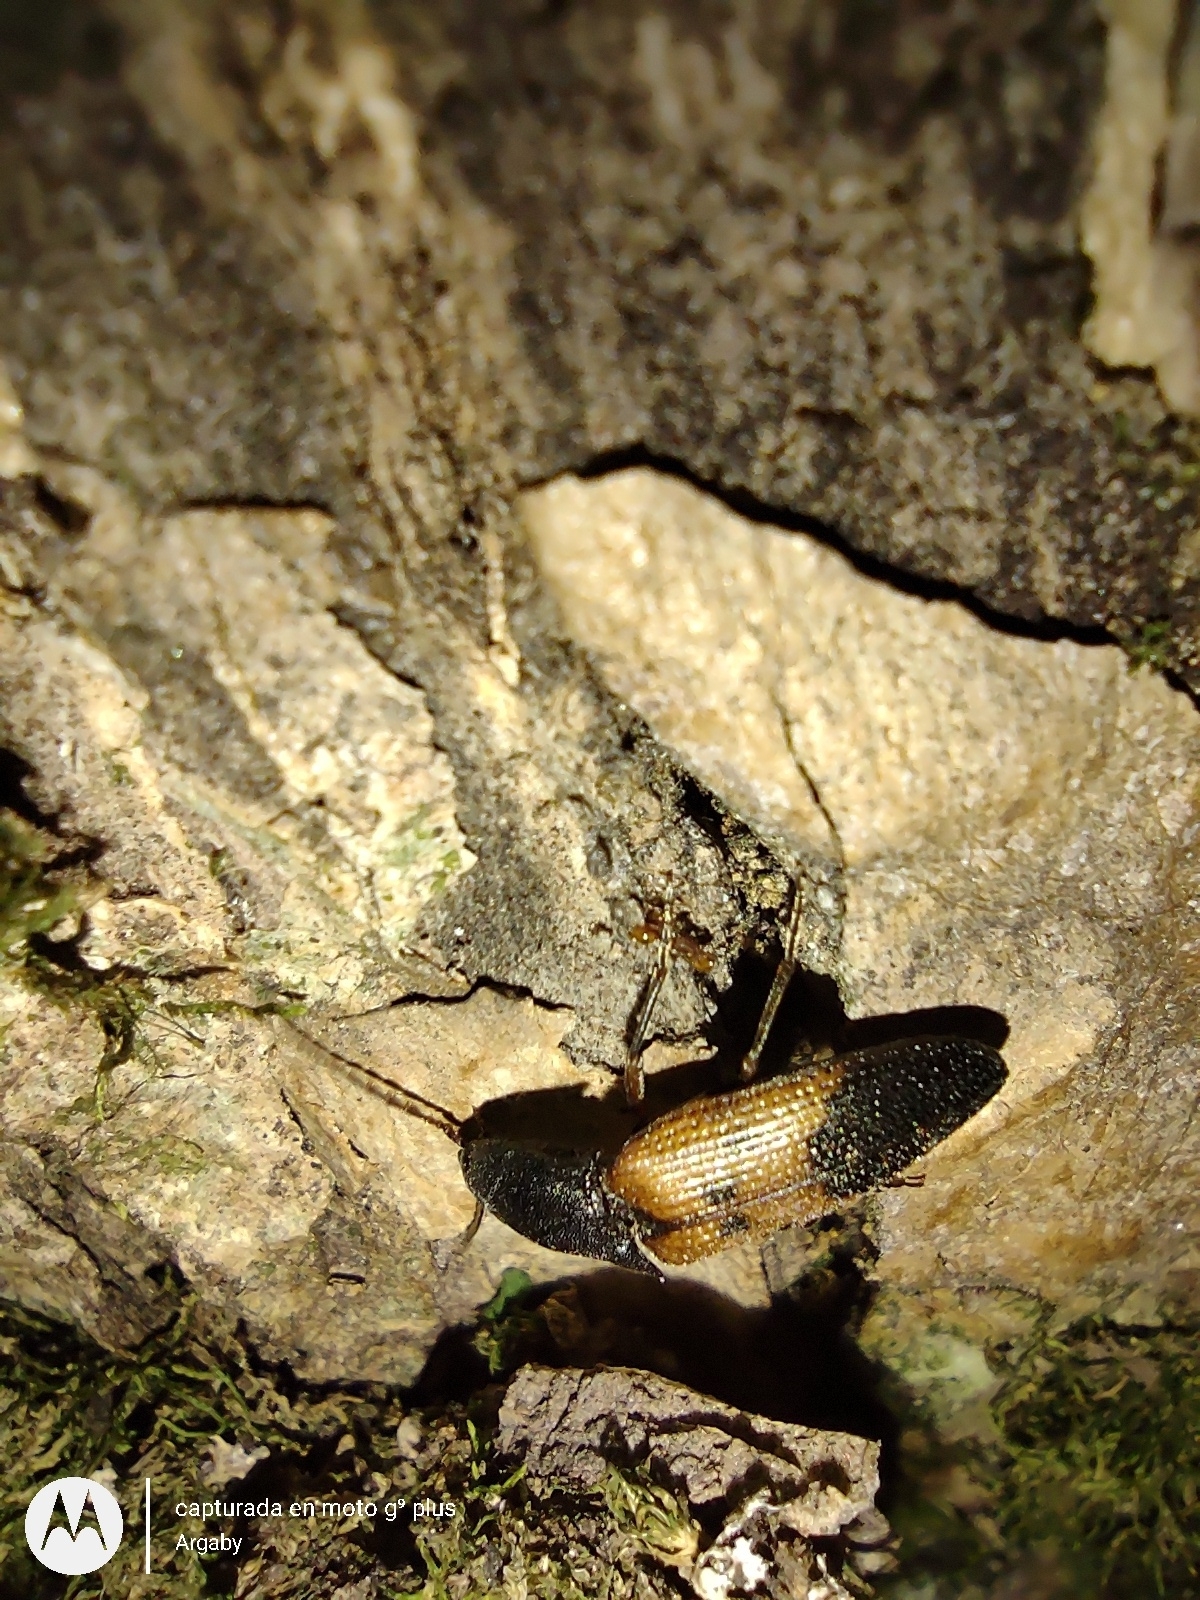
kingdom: Animalia
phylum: Arthropoda
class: Insecta
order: Coleoptera
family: Elateridae
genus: Monocrepidius
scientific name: Monocrepidius
